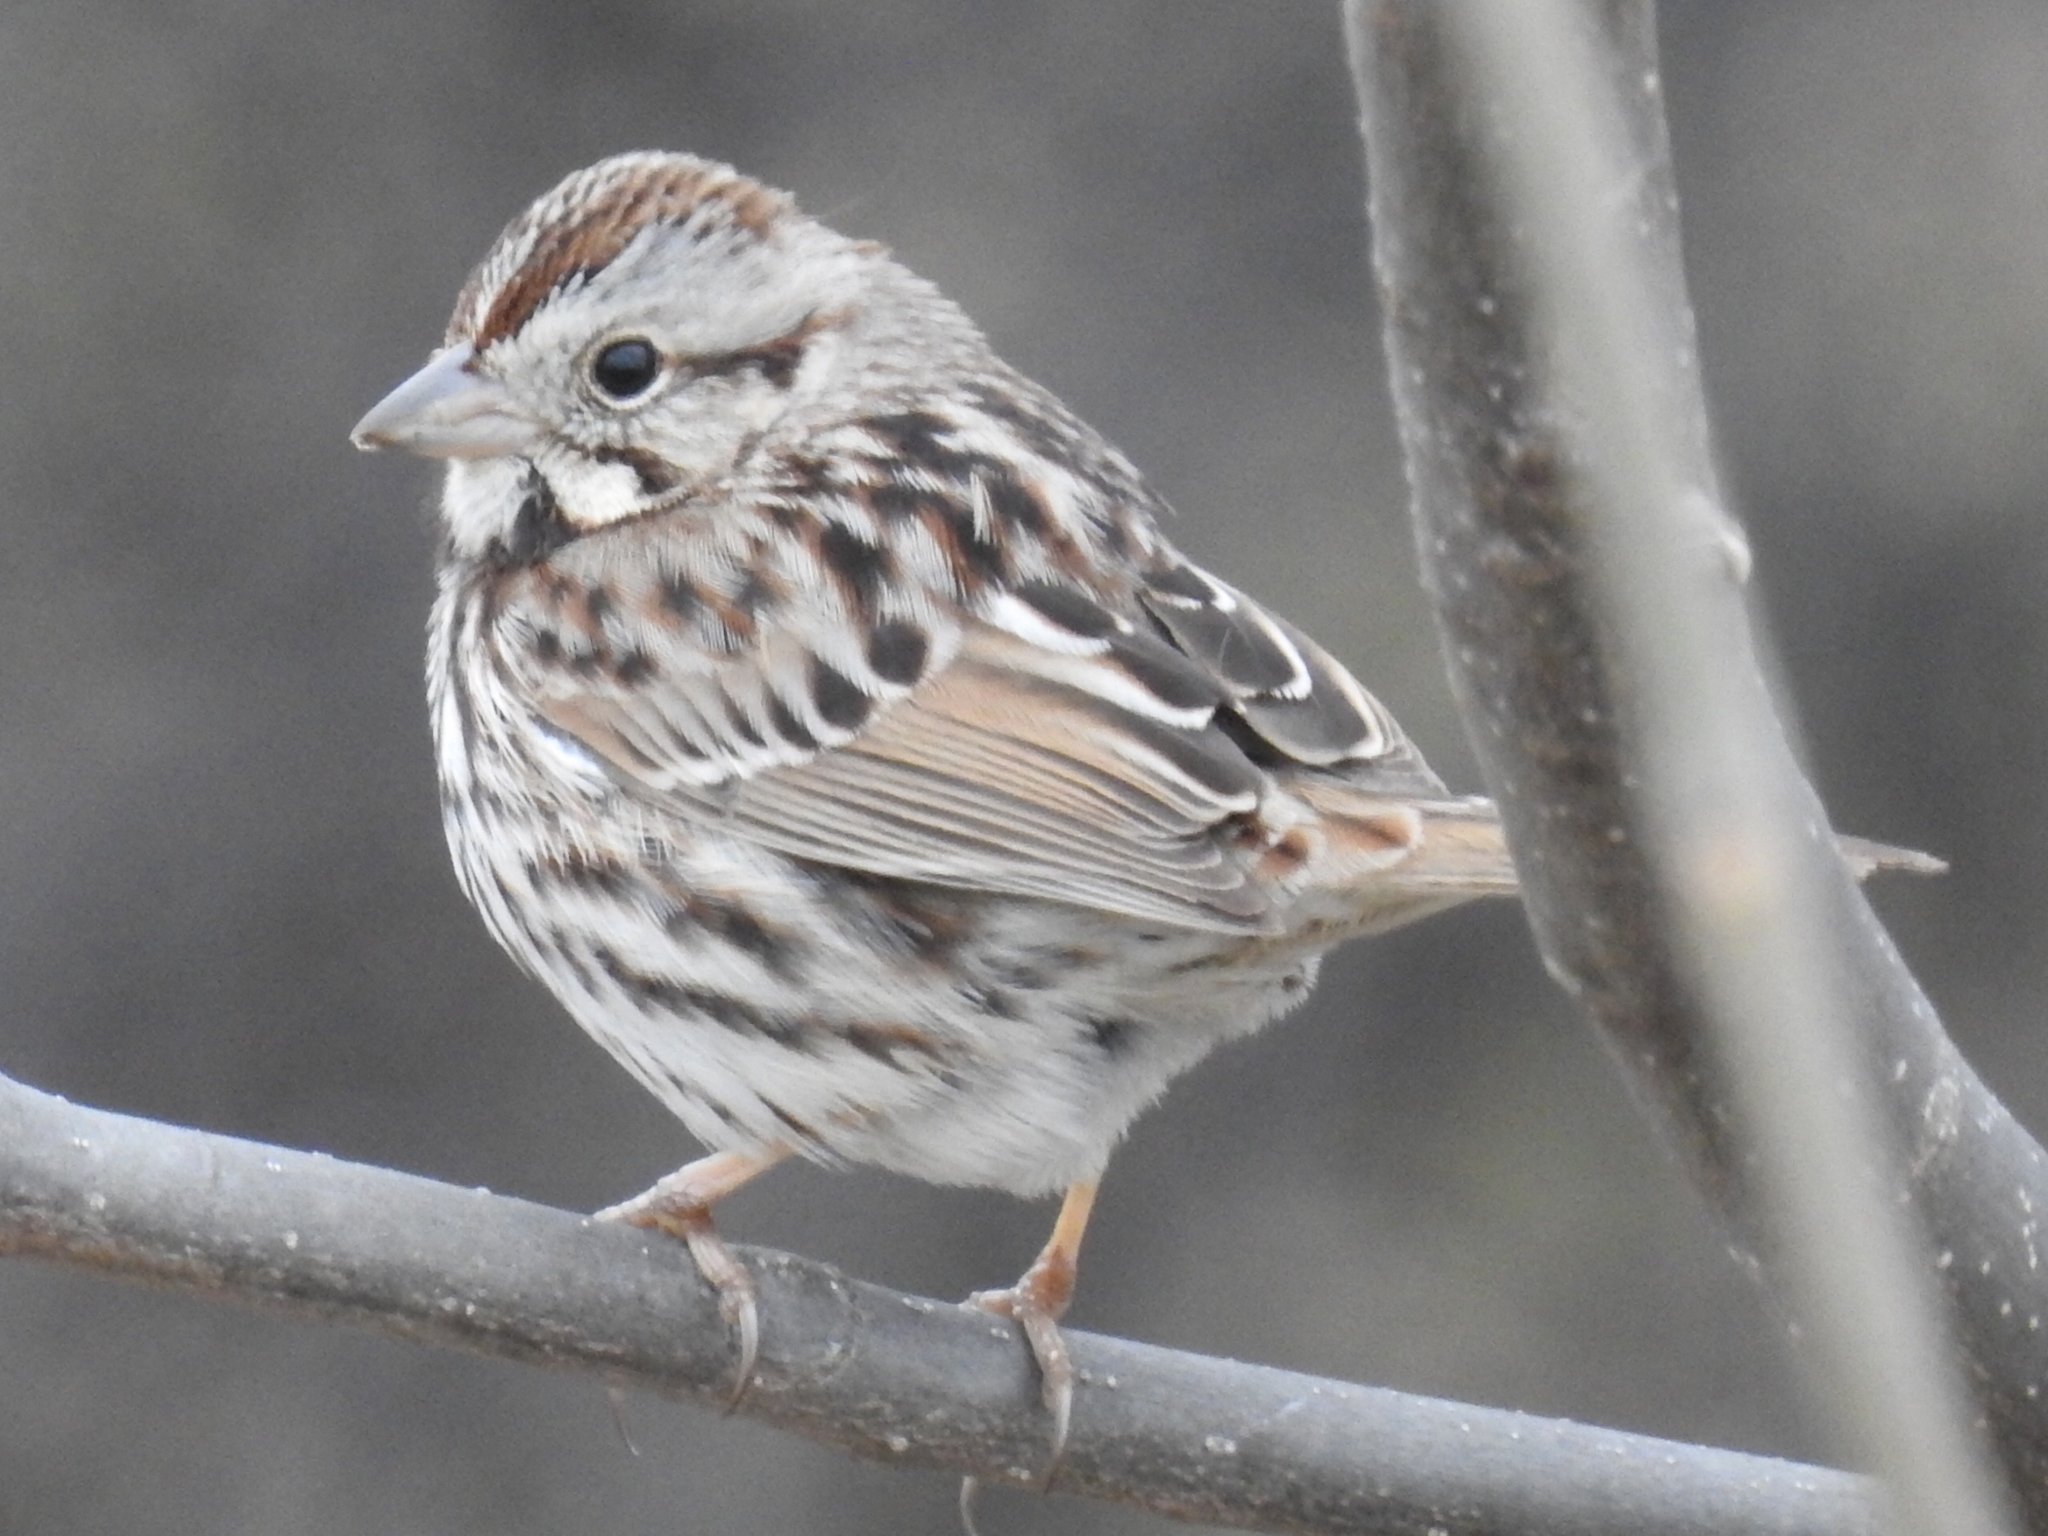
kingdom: Animalia
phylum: Chordata
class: Aves
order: Passeriformes
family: Passerellidae
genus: Melospiza
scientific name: Melospiza melodia
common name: Song sparrow
